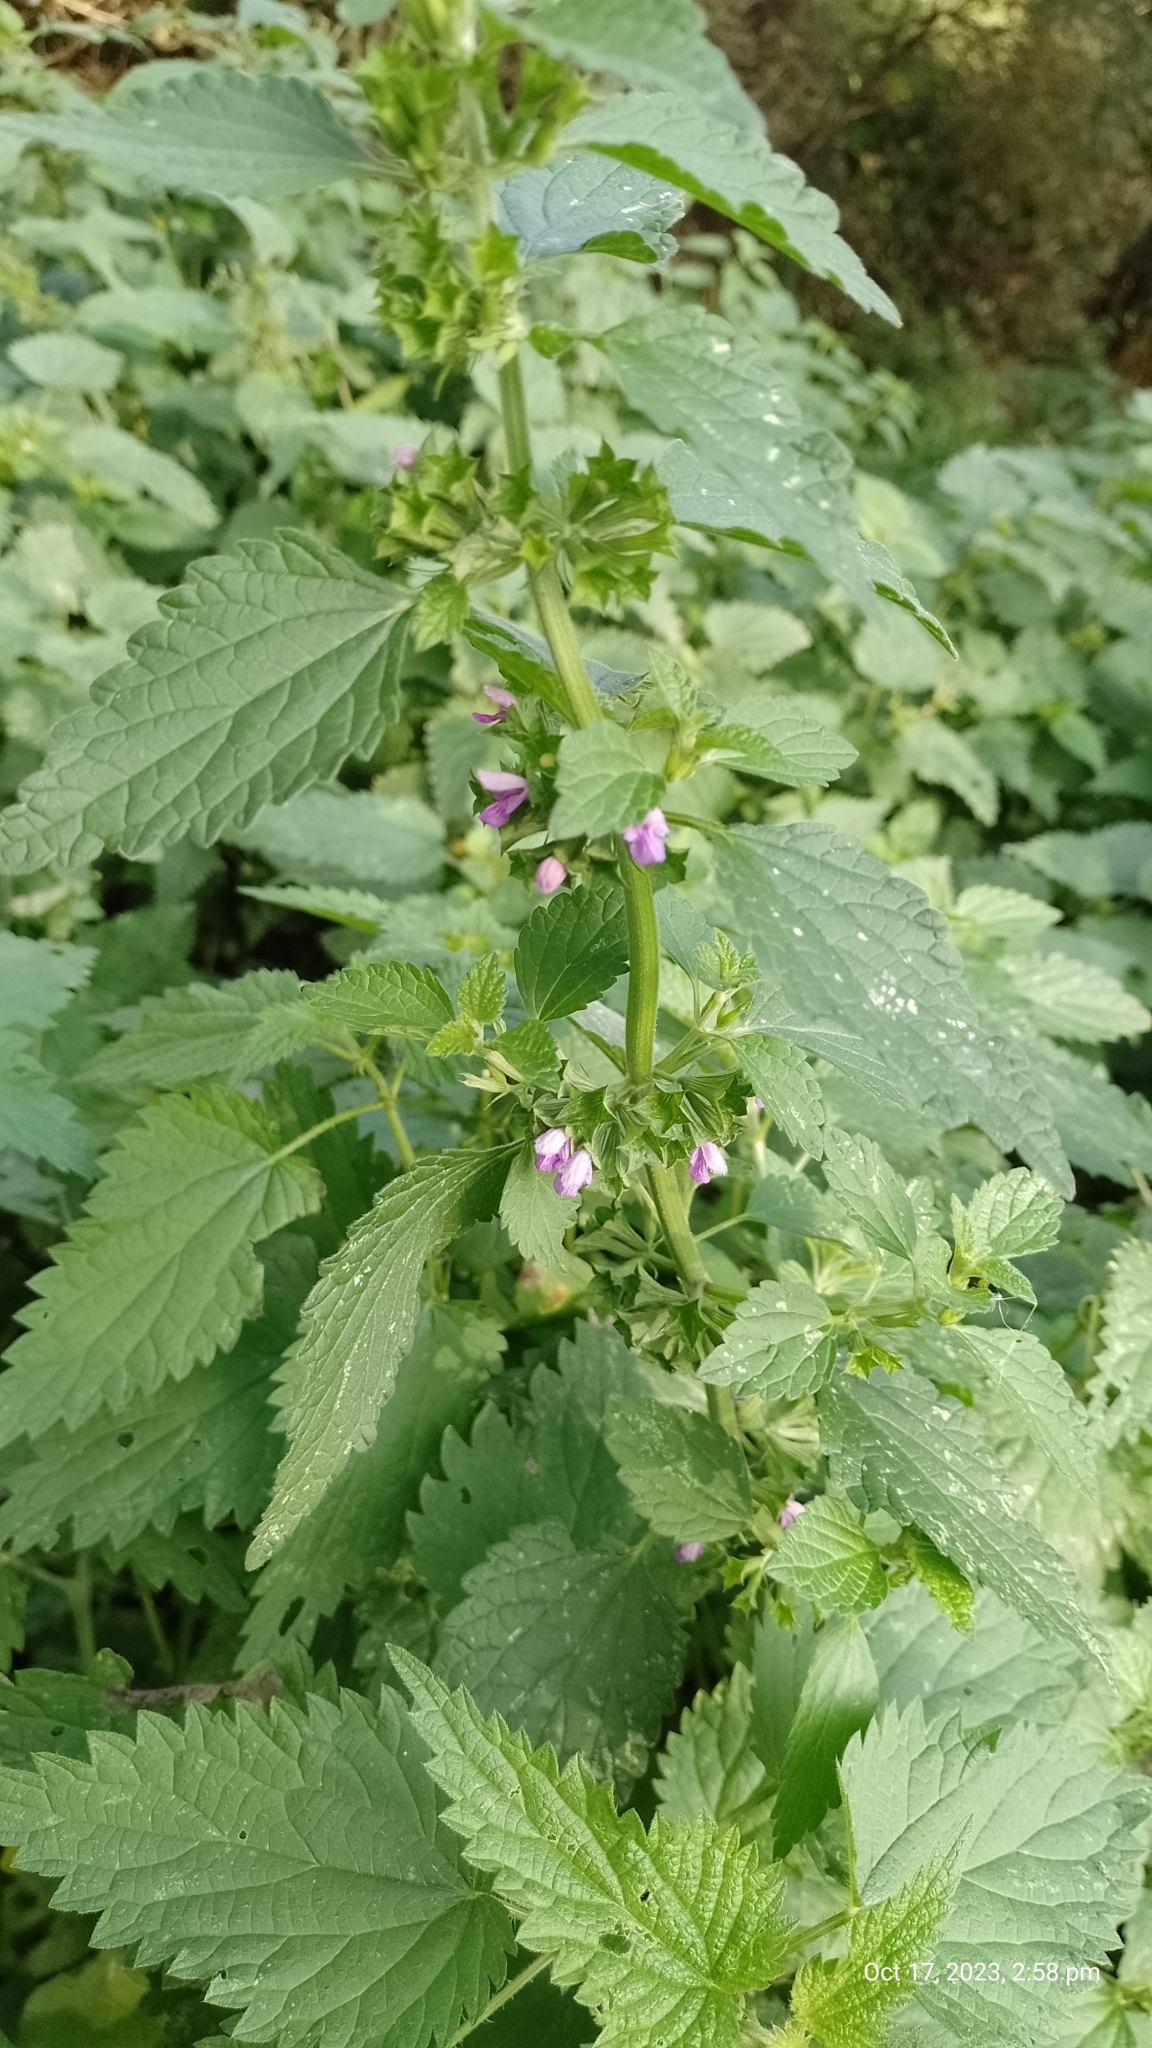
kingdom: Plantae
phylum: Tracheophyta
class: Magnoliopsida
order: Lamiales
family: Lamiaceae
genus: Ballota
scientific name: Ballota nigra
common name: Black horehound
